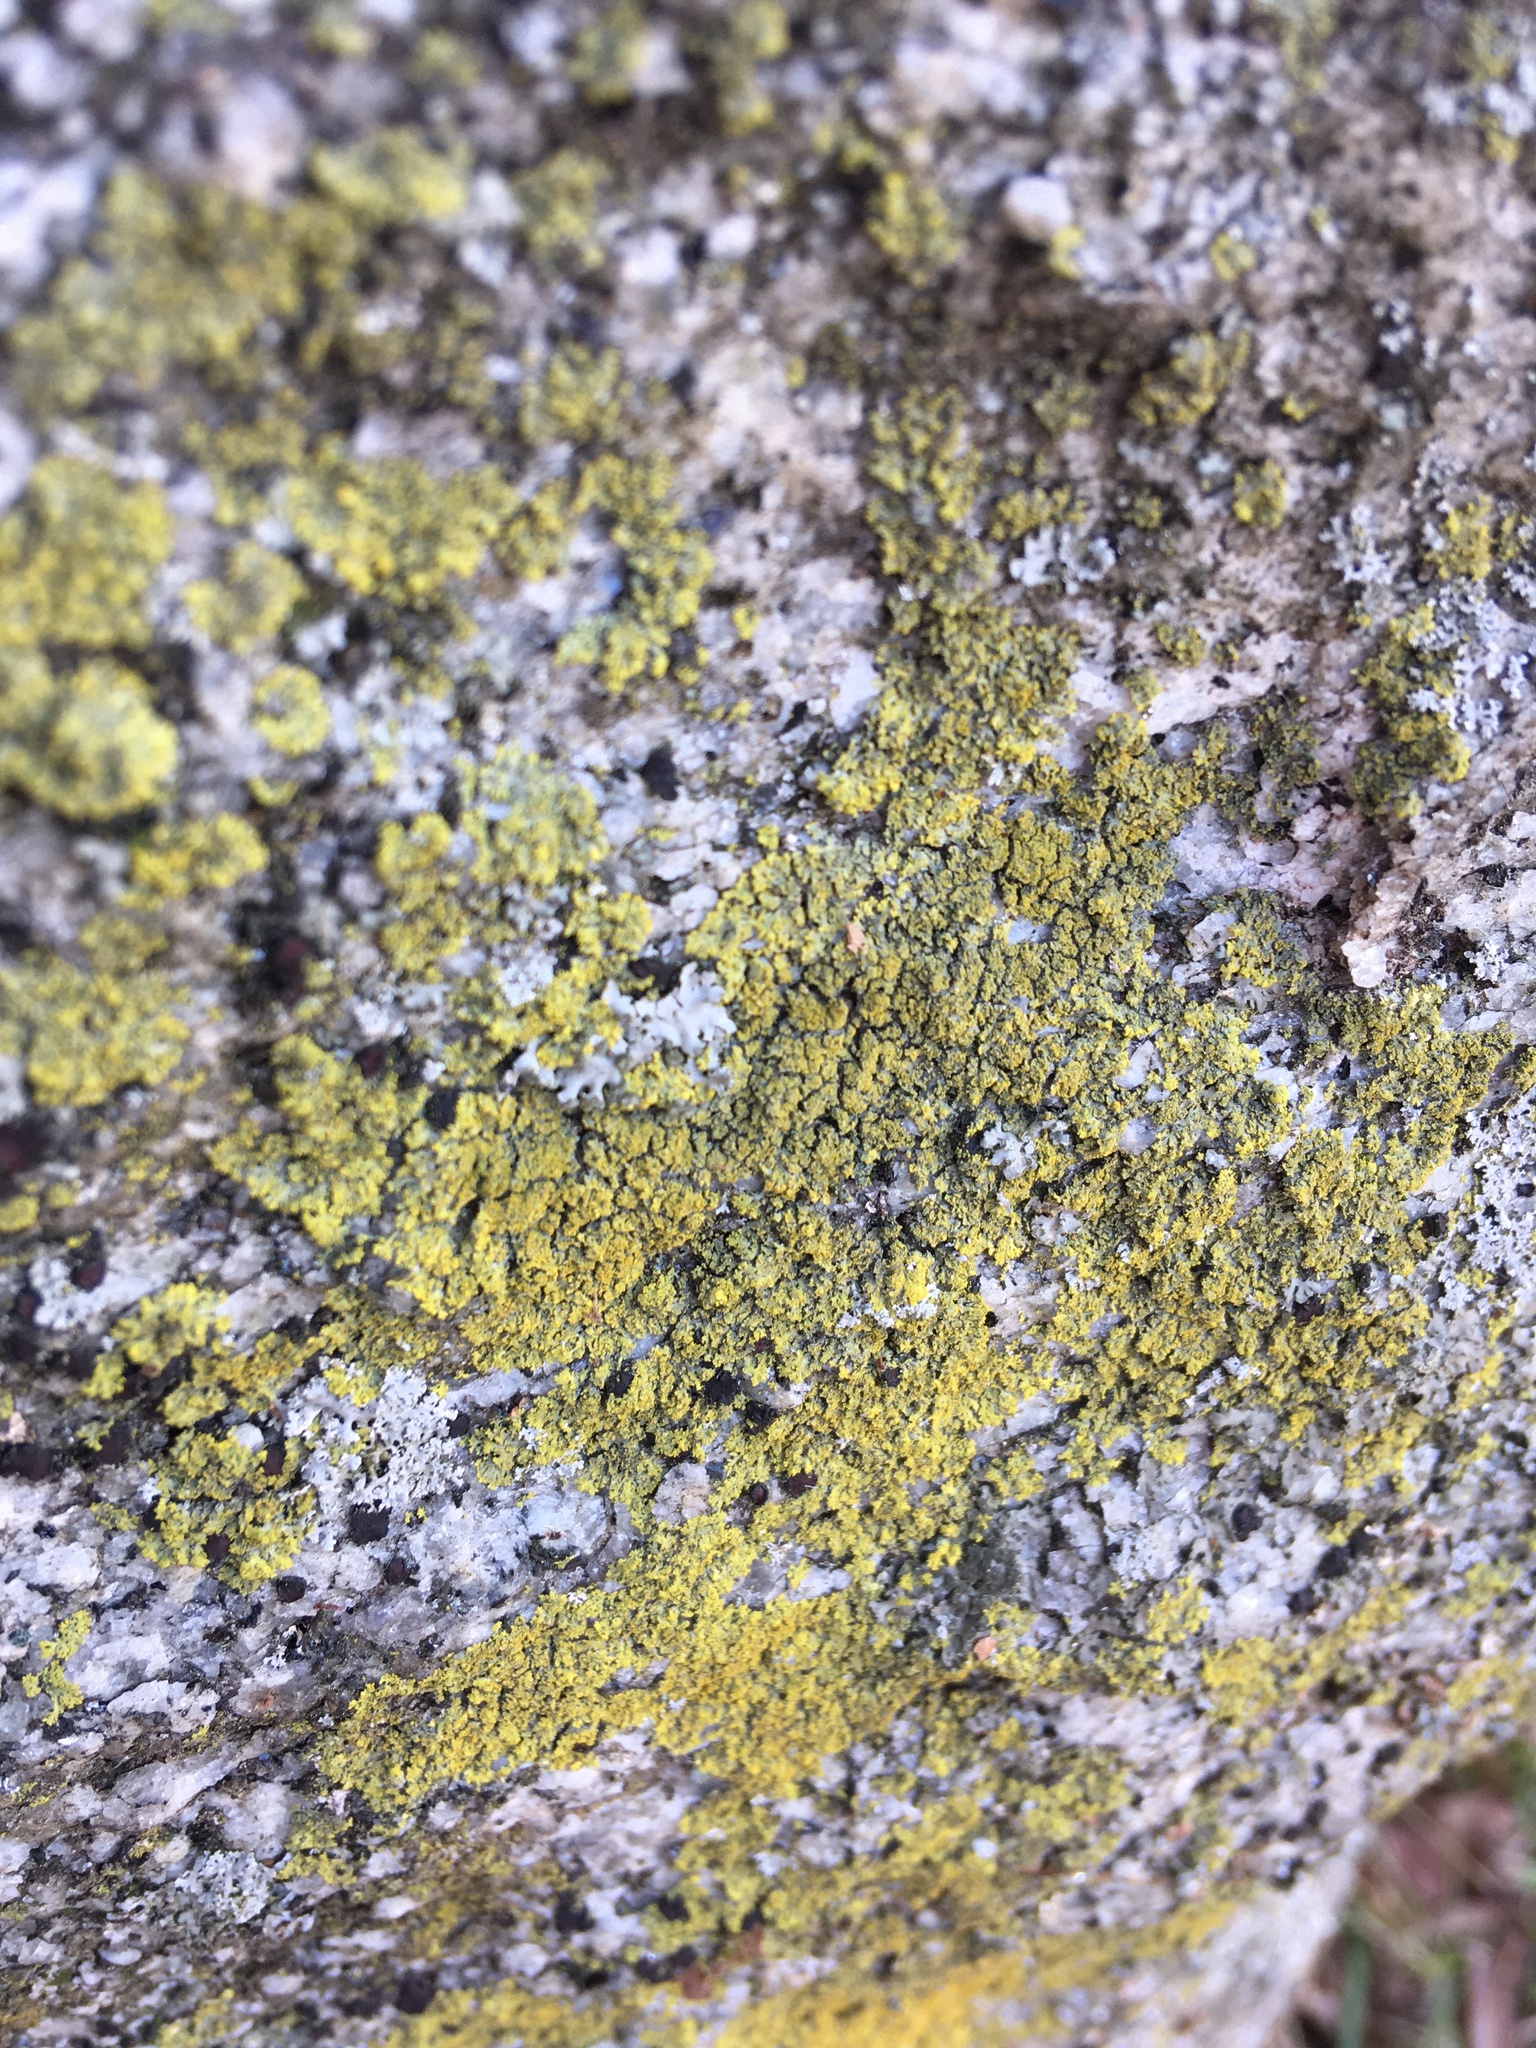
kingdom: Fungi
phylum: Ascomycota
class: Candelariomycetes
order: Candelariales
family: Candelariaceae
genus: Candelaria
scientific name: Candelaria concolor
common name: Candleflame lichen
